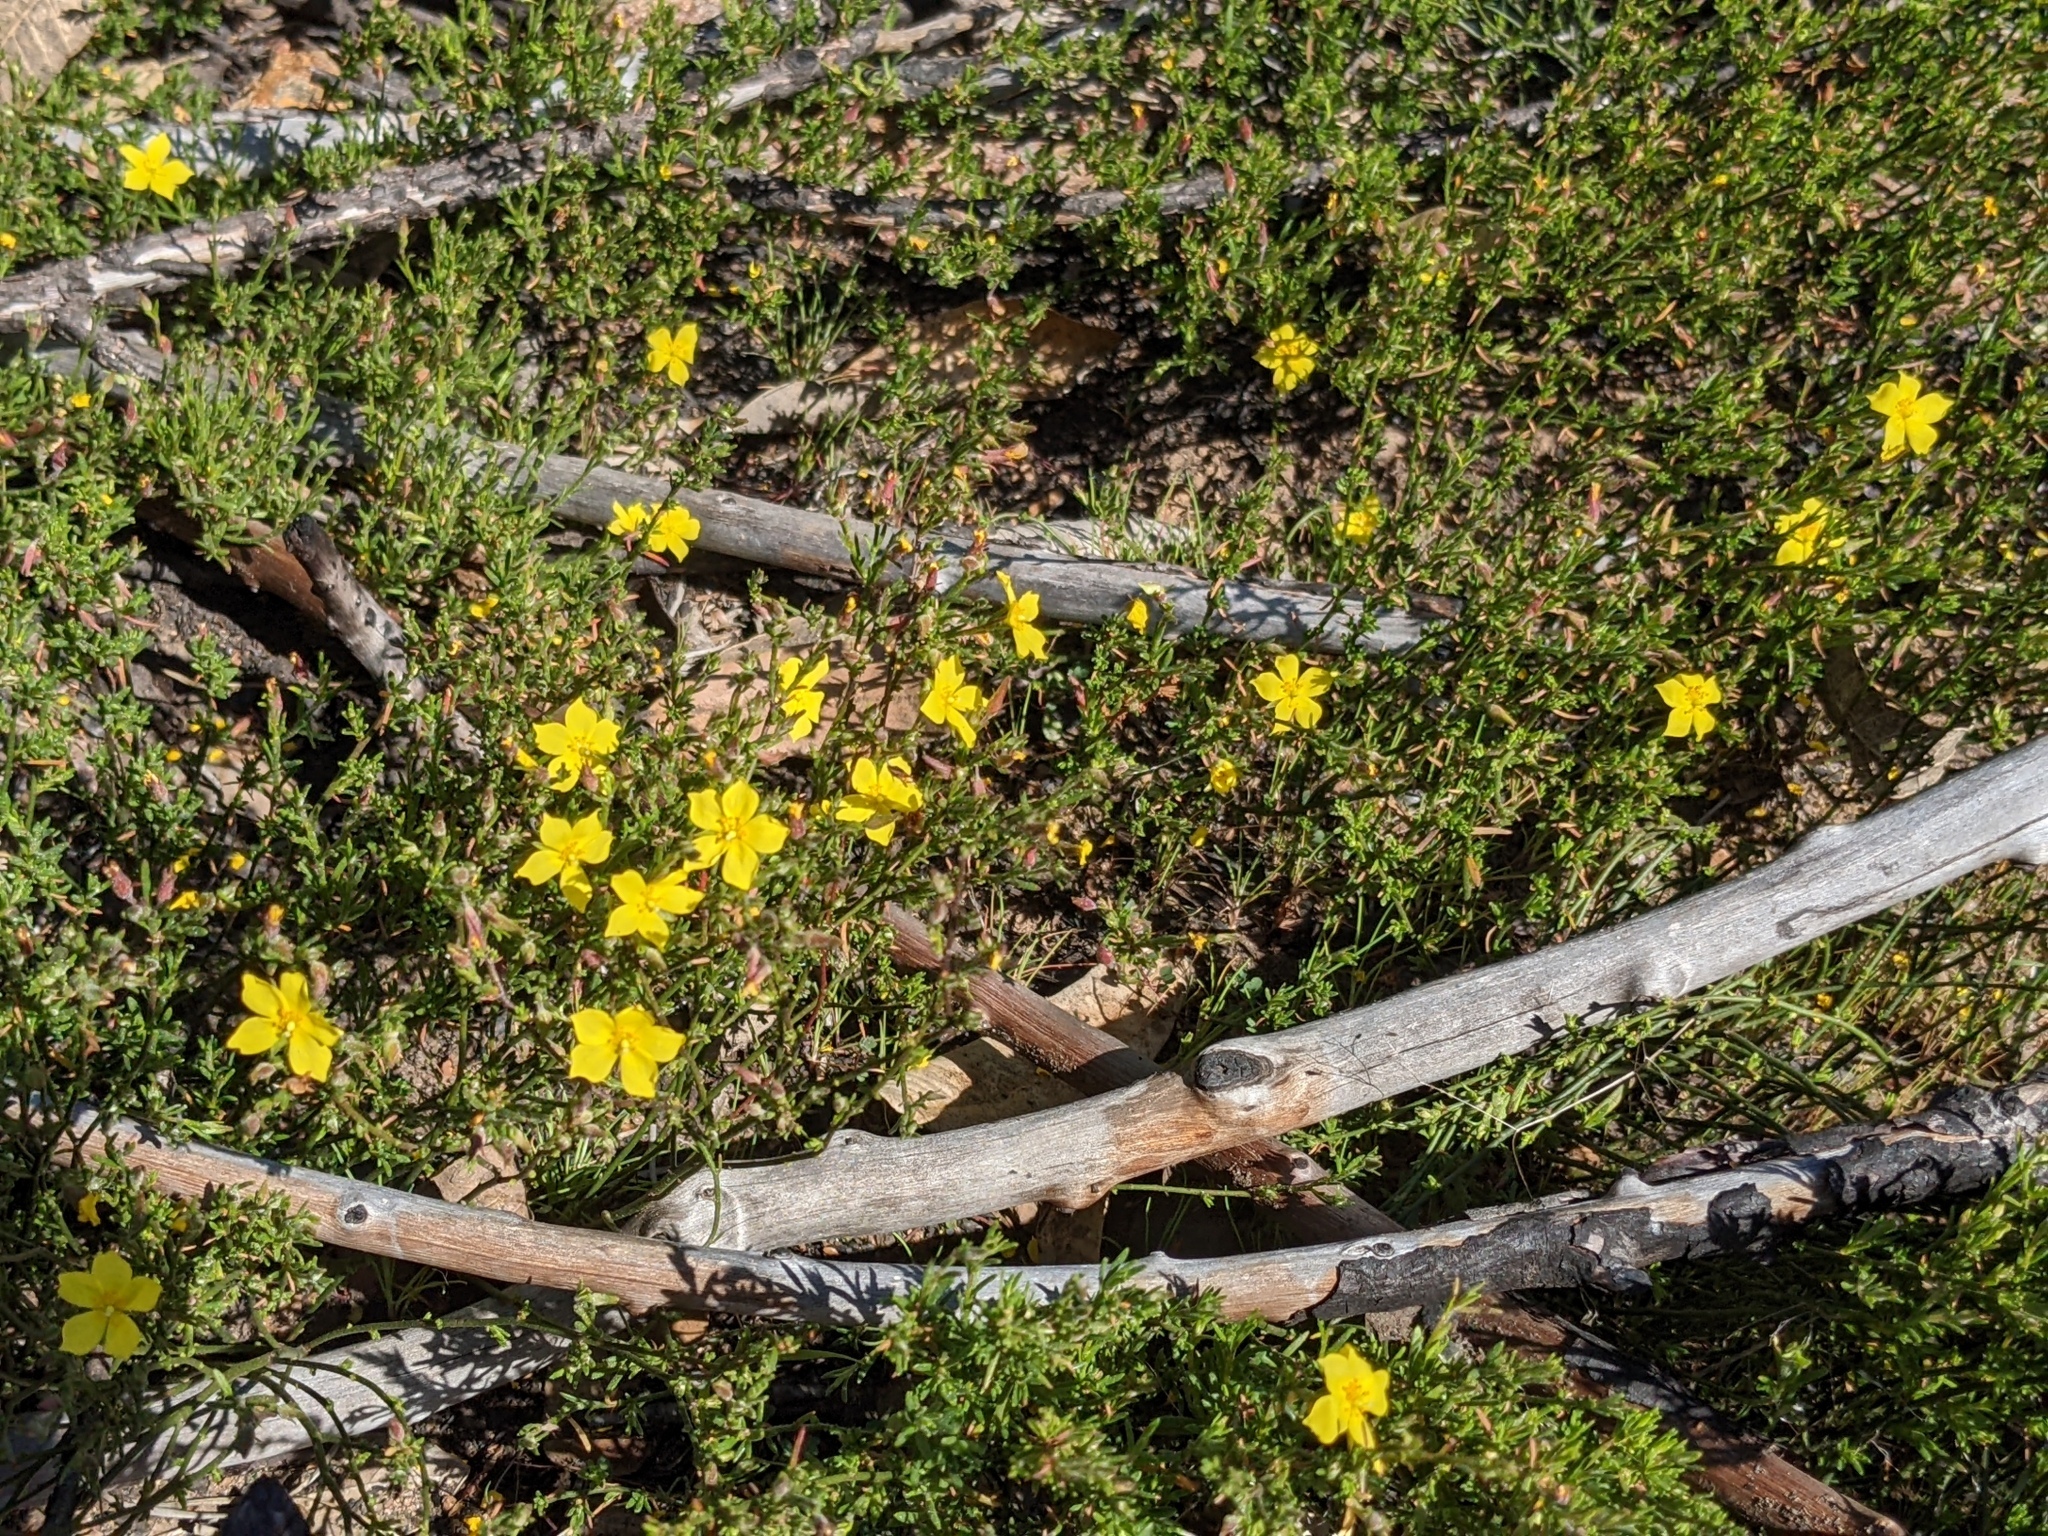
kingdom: Plantae
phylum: Tracheophyta
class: Magnoliopsida
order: Malvales
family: Cistaceae
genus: Crocanthemum
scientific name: Crocanthemum scoparium
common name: Broom-rose
